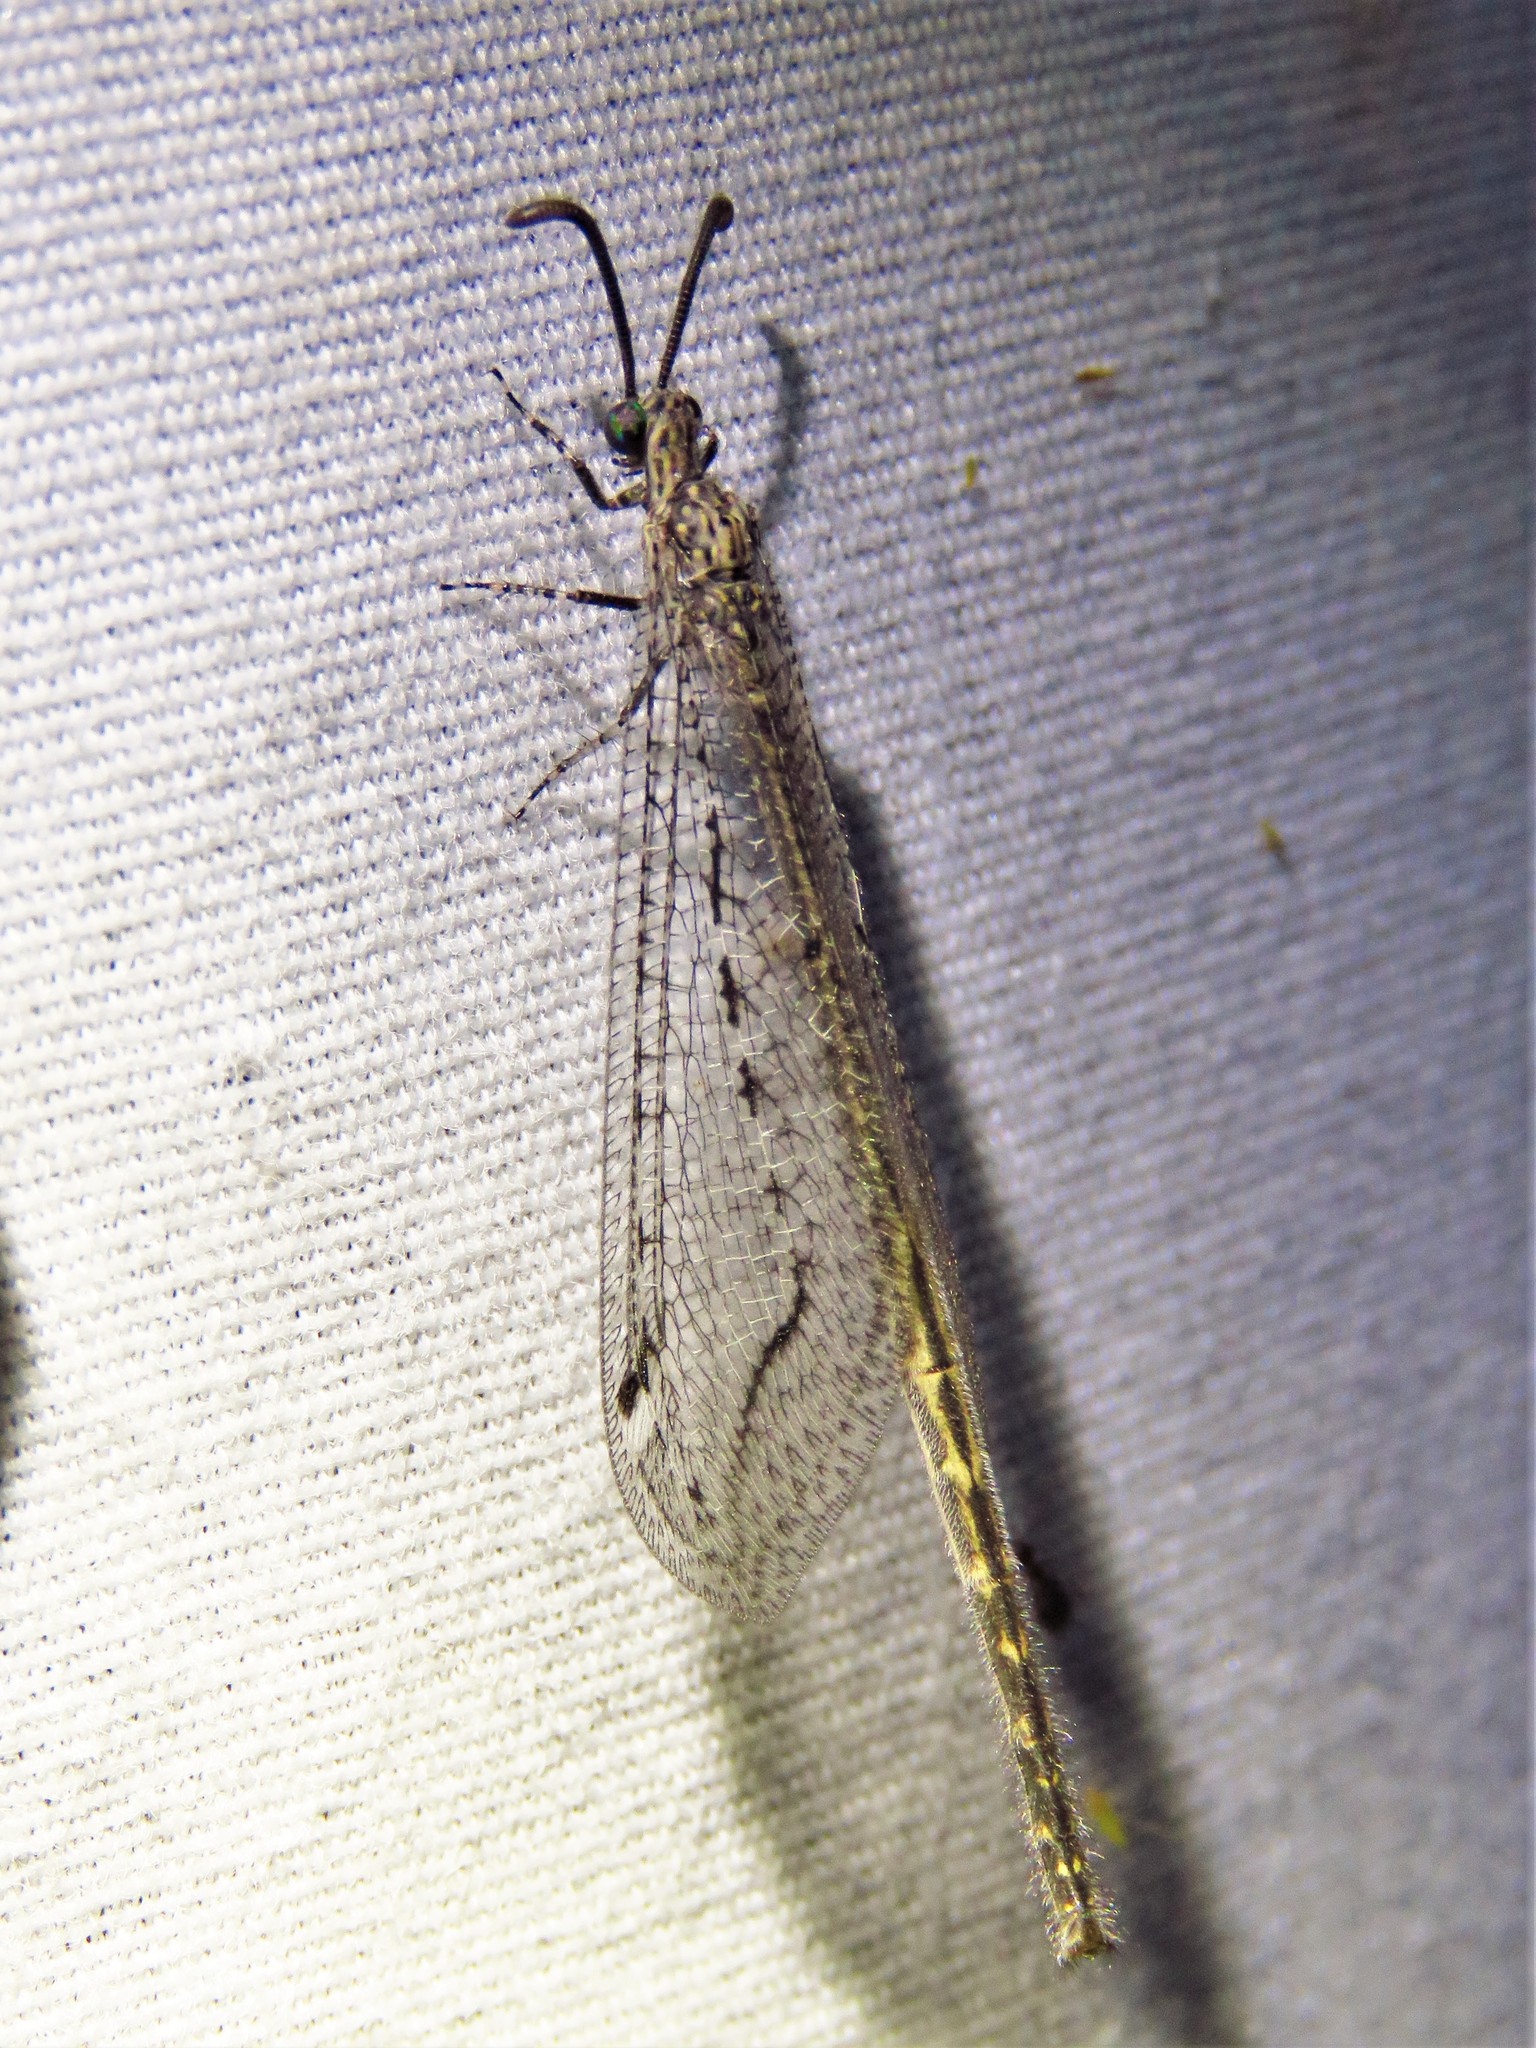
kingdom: Animalia
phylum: Arthropoda
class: Insecta
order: Neuroptera
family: Myrmeleontidae
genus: Mexoleon
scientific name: Mexoleon papago
